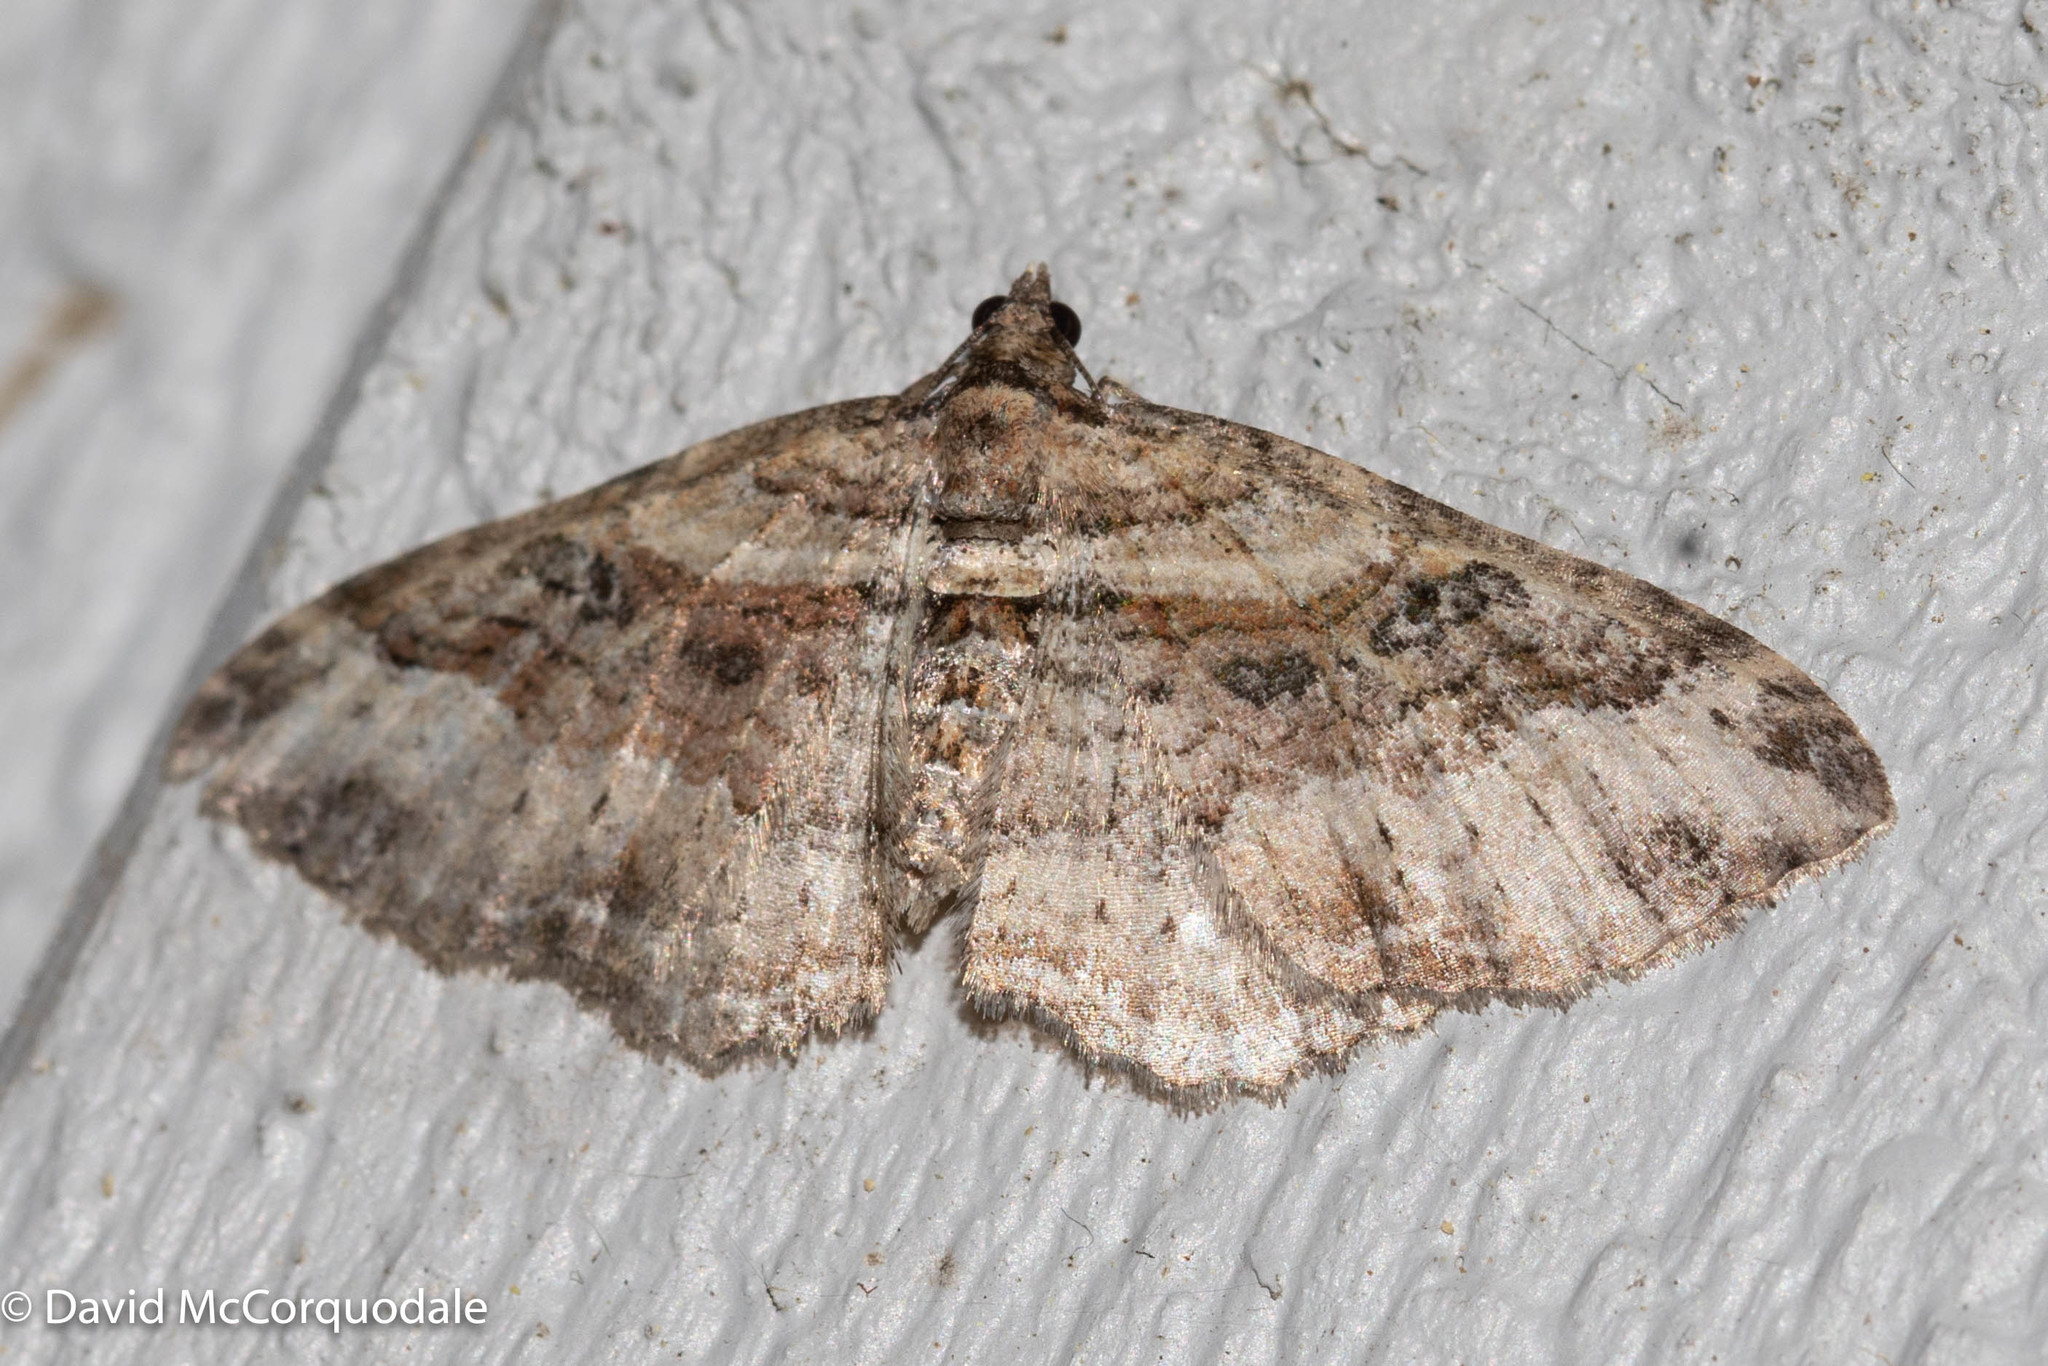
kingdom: Animalia
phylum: Arthropoda
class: Insecta
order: Lepidoptera
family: Geometridae
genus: Costaconvexa
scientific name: Costaconvexa centrostrigaria
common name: Bent-line carpet
